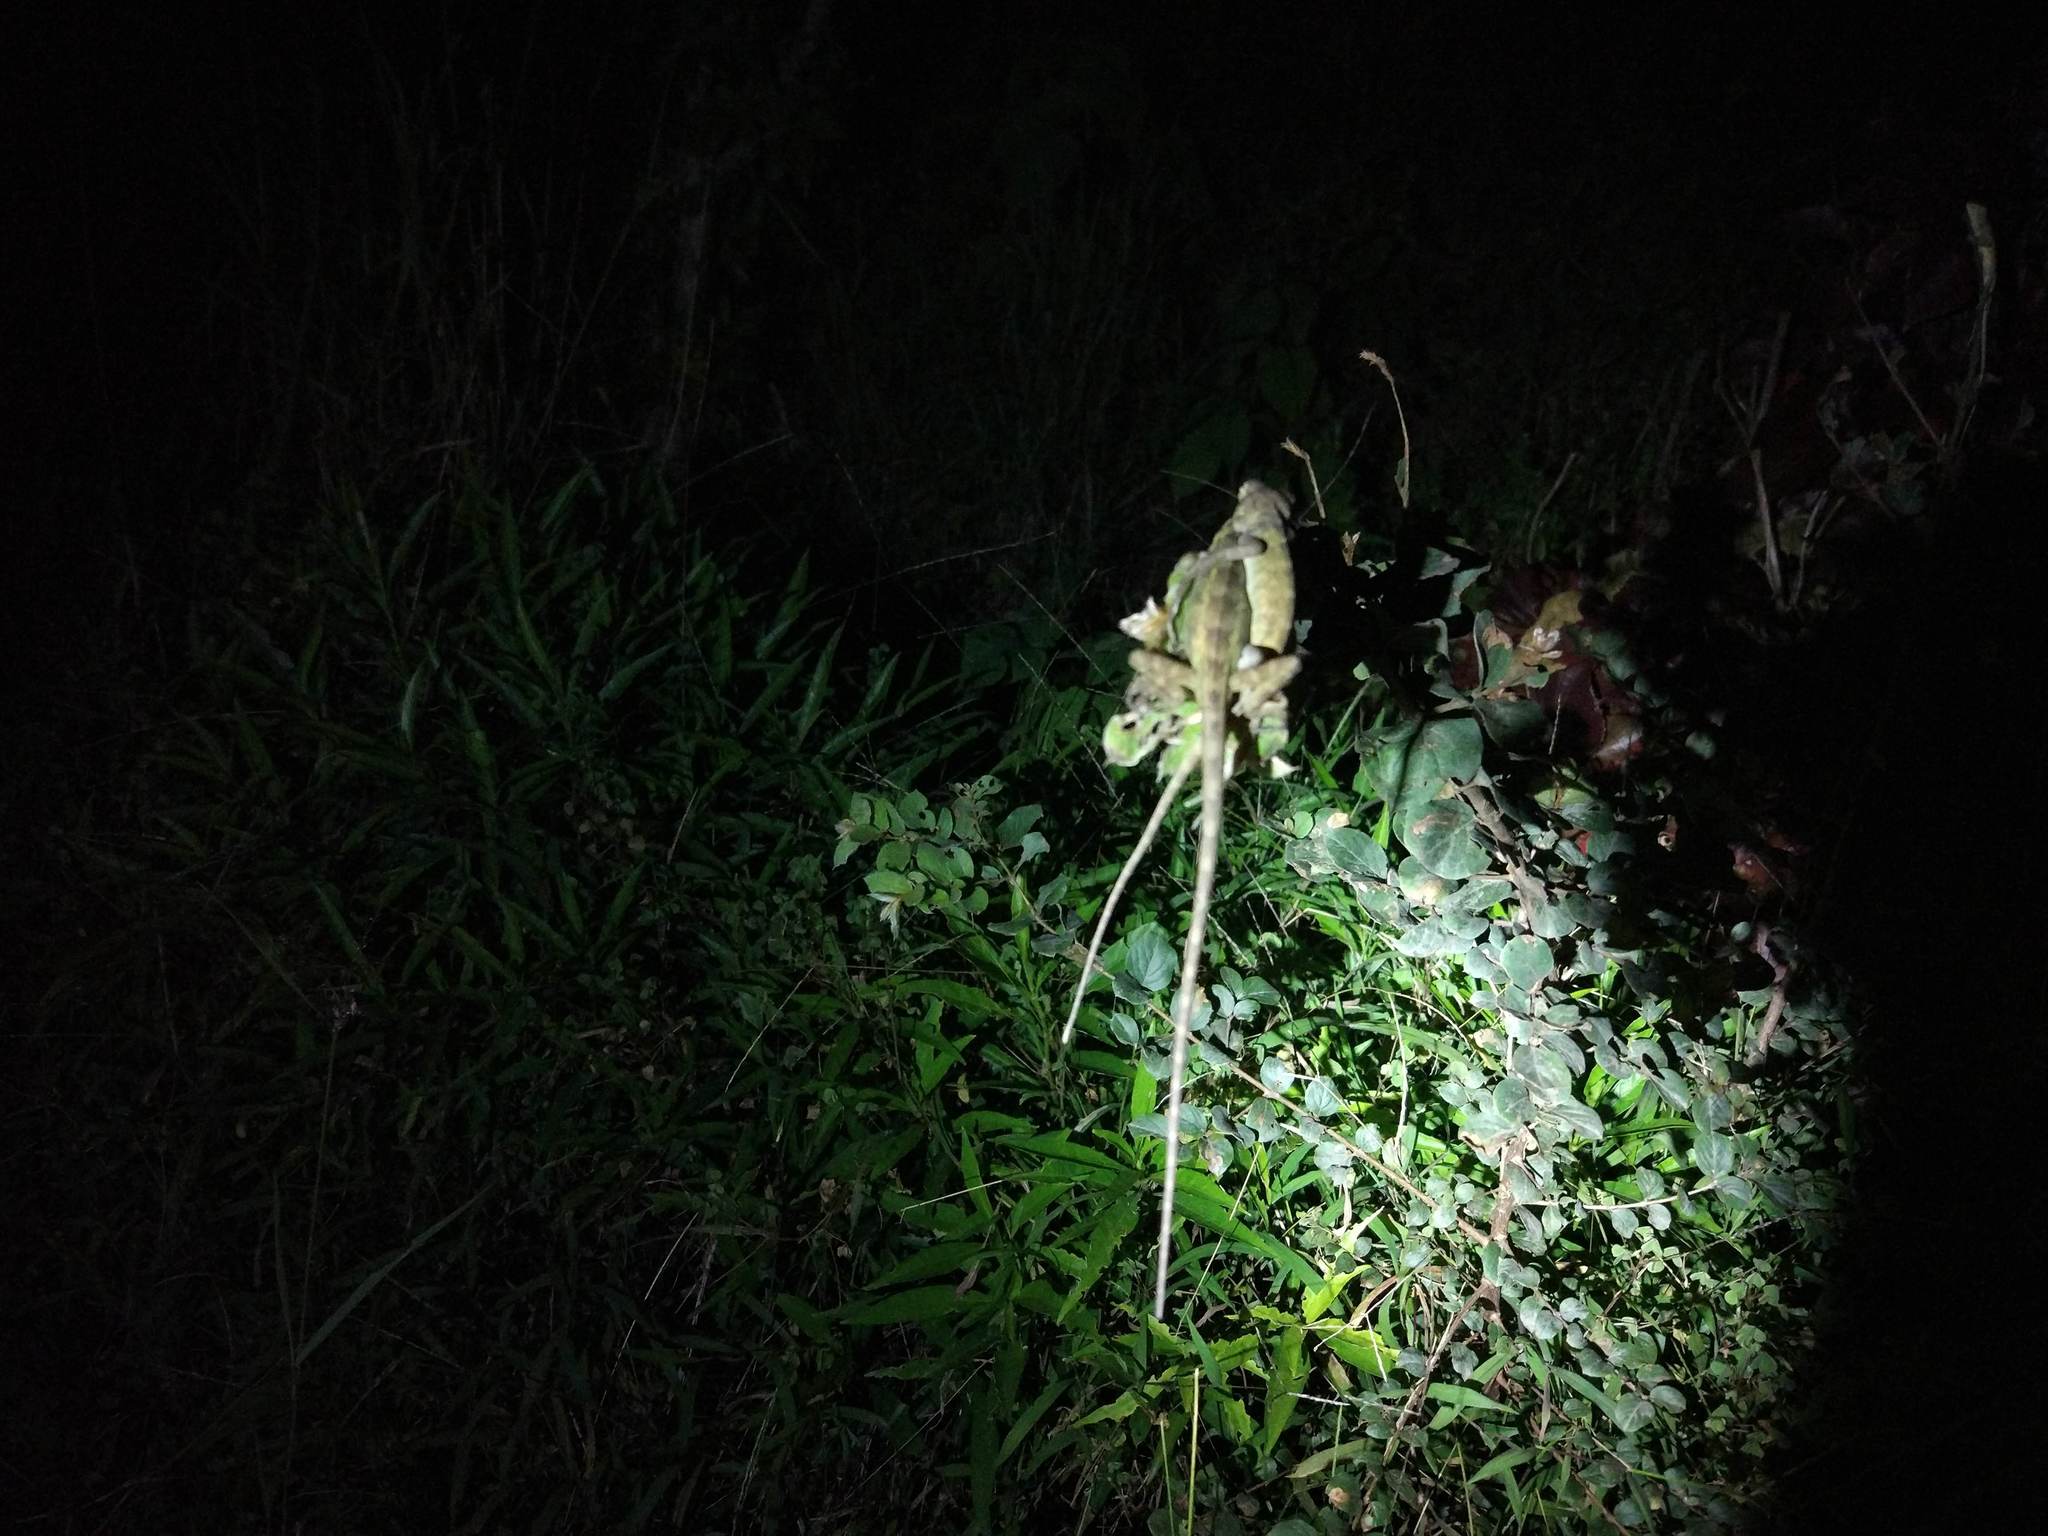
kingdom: Animalia
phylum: Chordata
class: Squamata
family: Agamidae
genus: Calotes
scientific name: Calotes versicolor
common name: Oriental garden lizard
